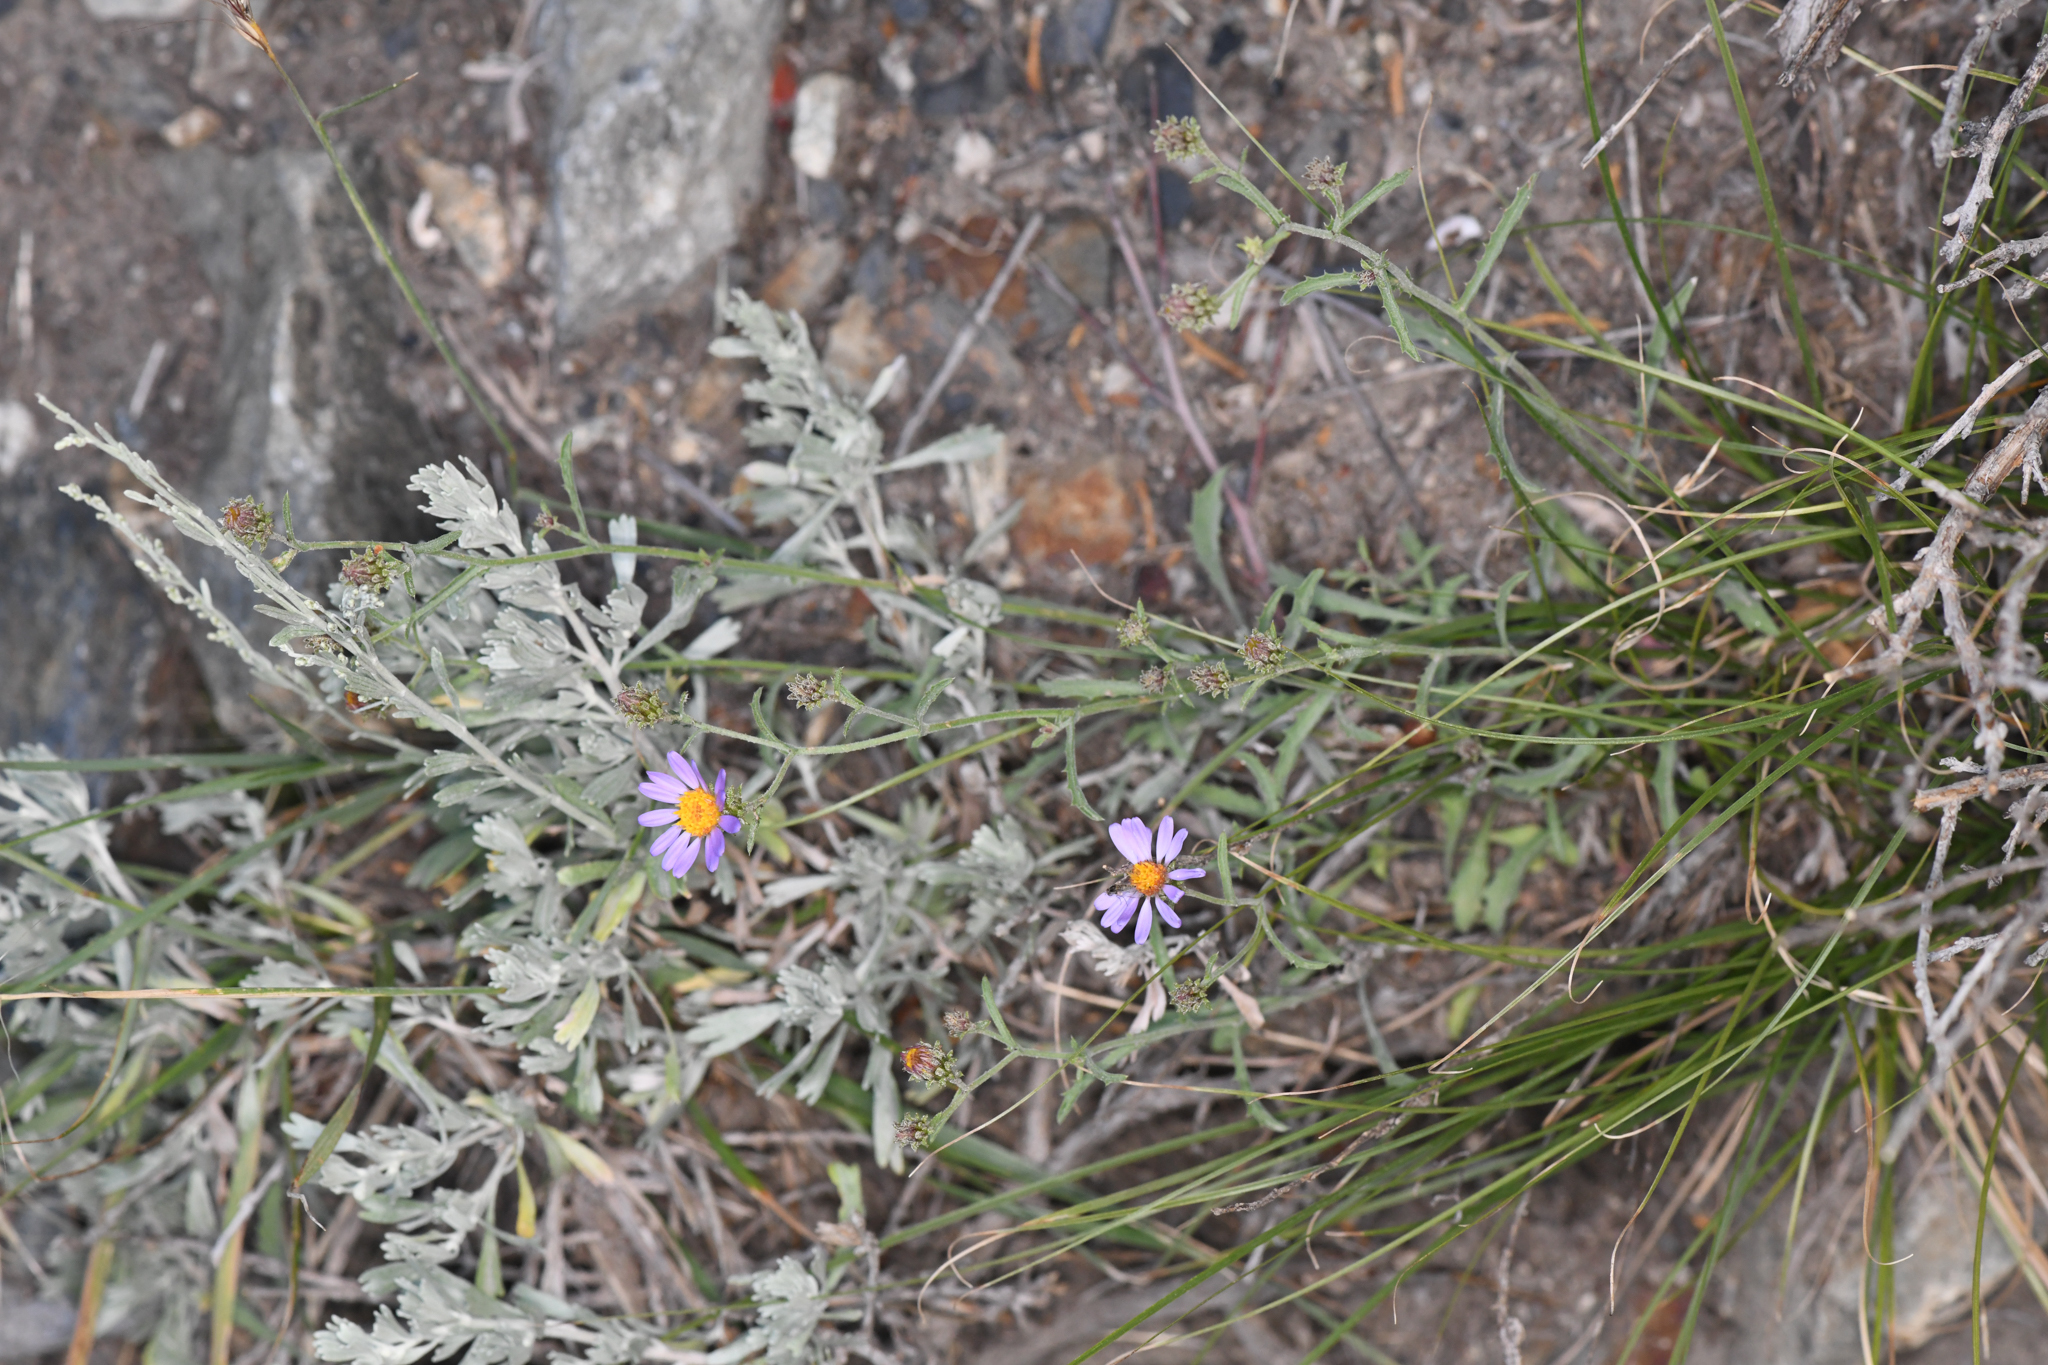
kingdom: Plantae
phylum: Tracheophyta
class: Magnoliopsida
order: Asterales
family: Asteraceae
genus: Dieteria
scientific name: Dieteria canescens
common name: Hoary-aster
